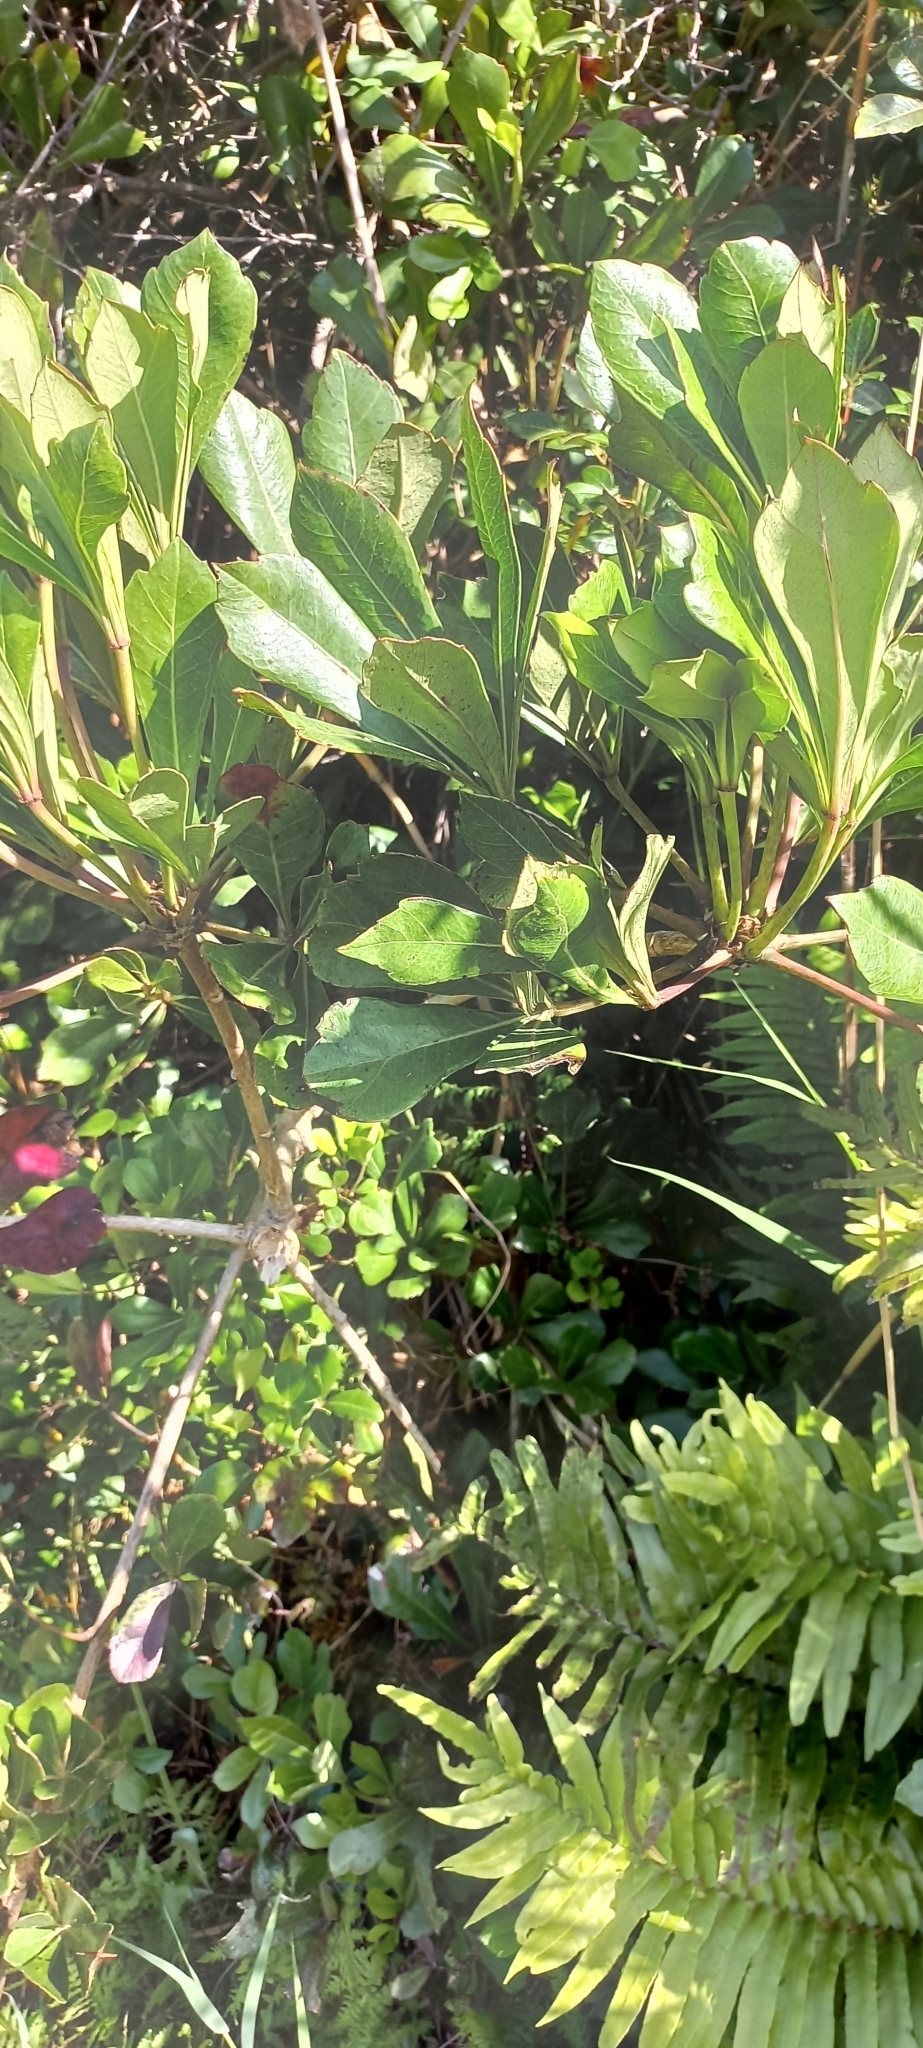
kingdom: Plantae
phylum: Tracheophyta
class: Magnoliopsida
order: Apiales
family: Araliaceae
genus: Cussonia
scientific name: Cussonia thyrsiflora
